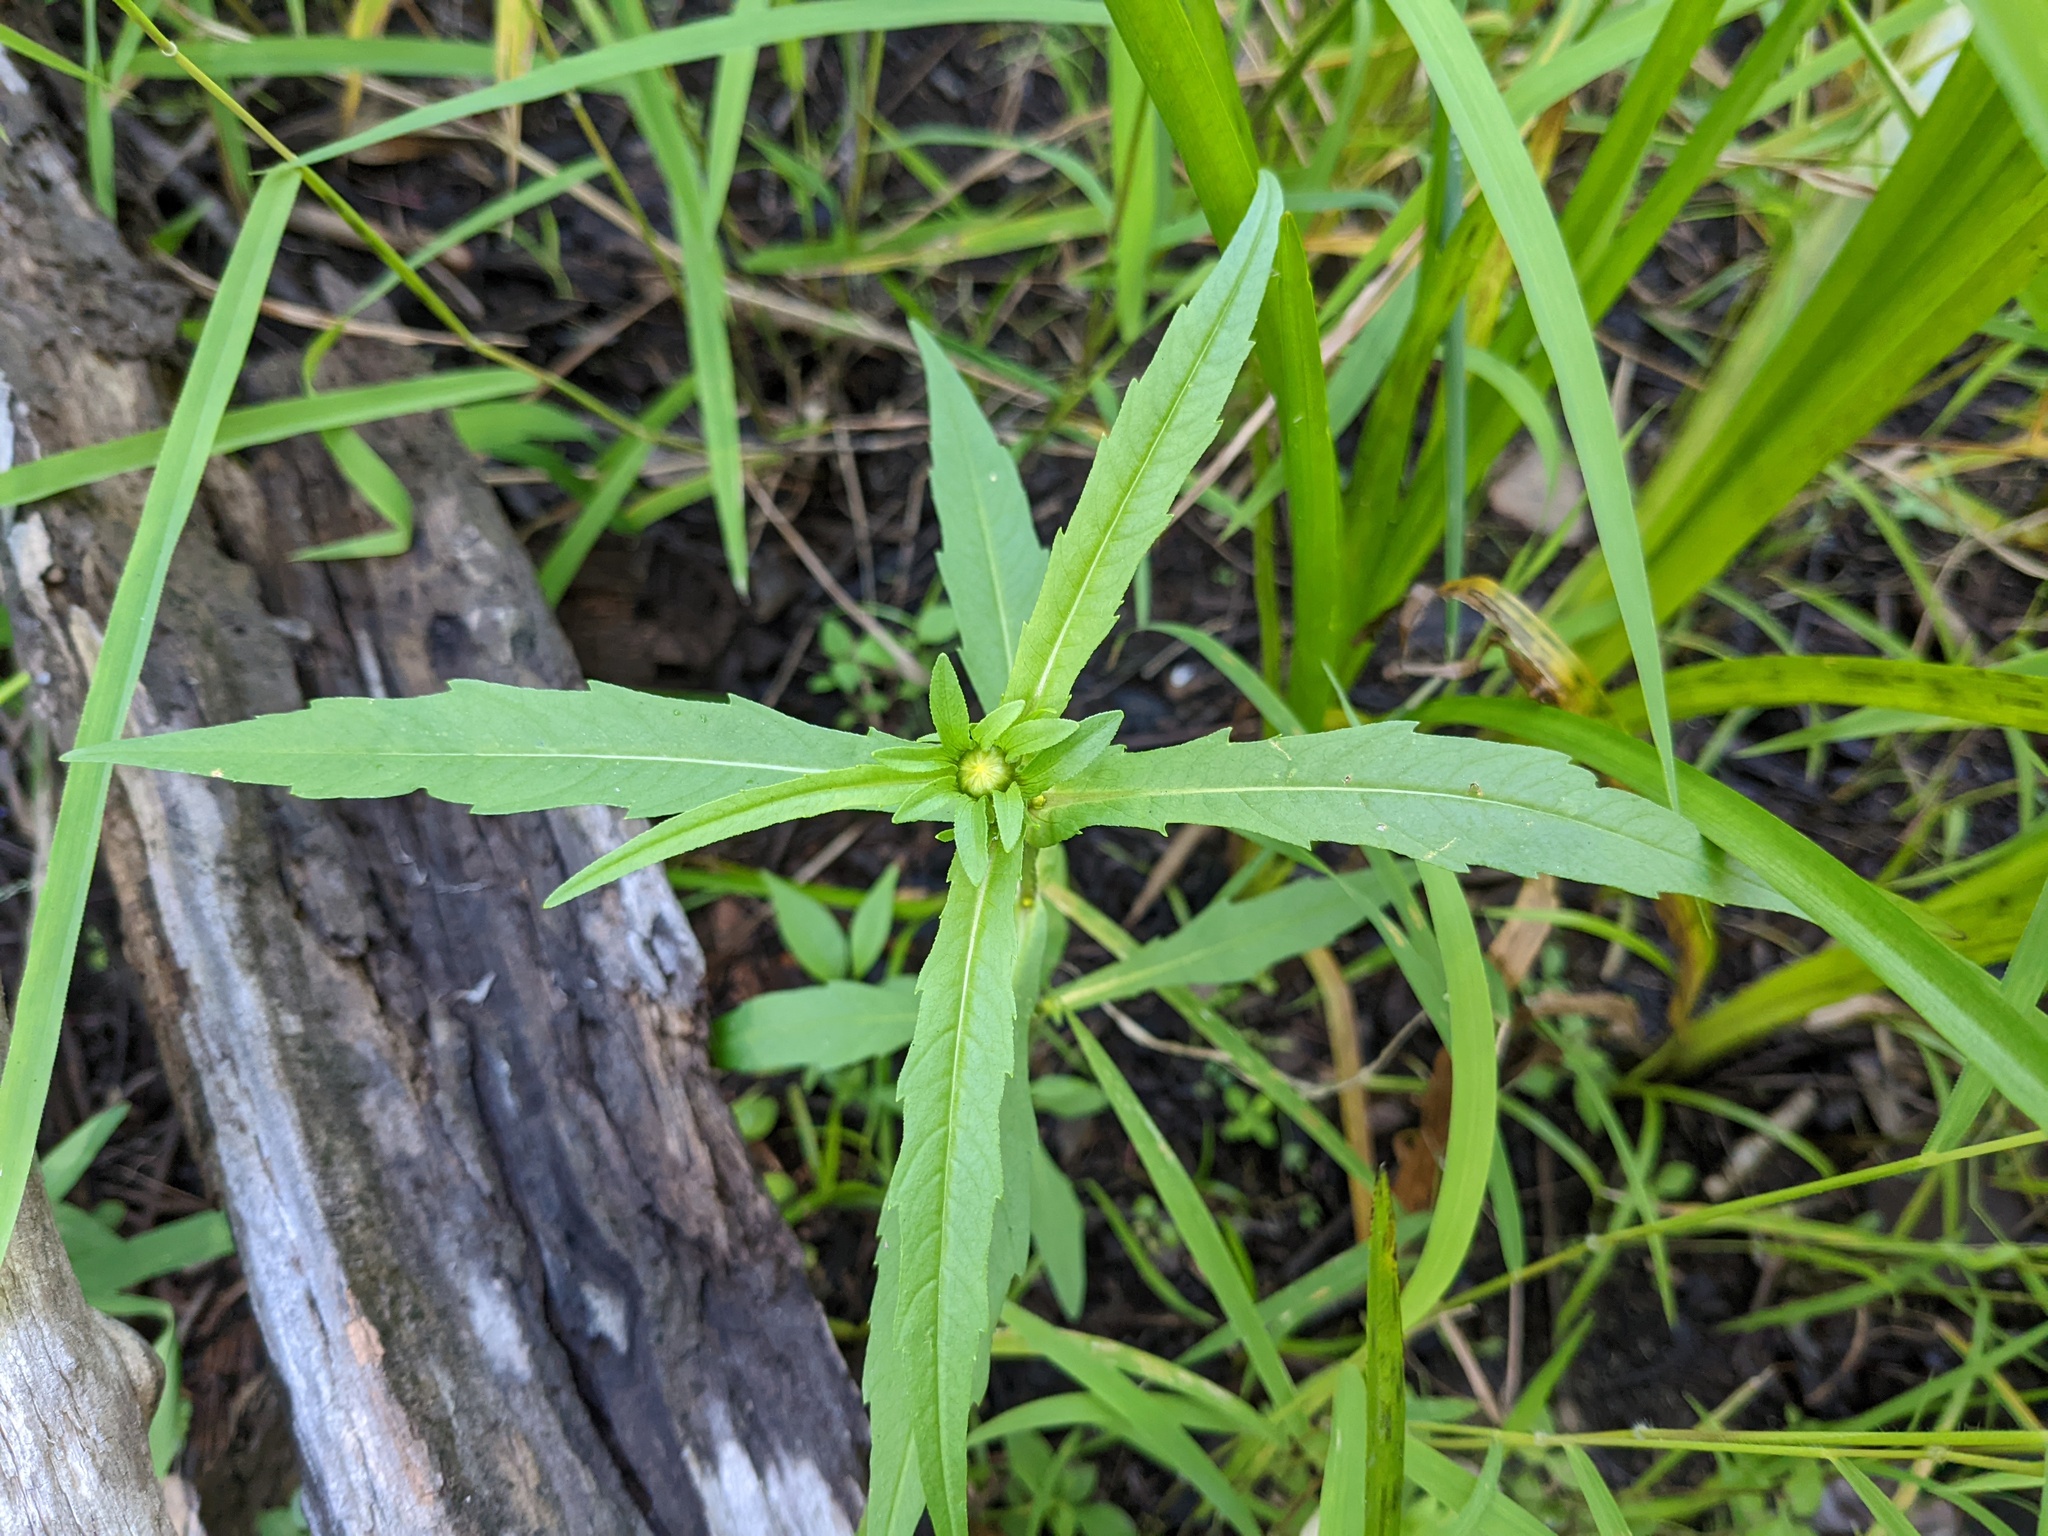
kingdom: Plantae
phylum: Tracheophyta
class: Magnoliopsida
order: Asterales
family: Asteraceae
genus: Bidens
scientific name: Bidens cernua
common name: Nodding bur-marigold
